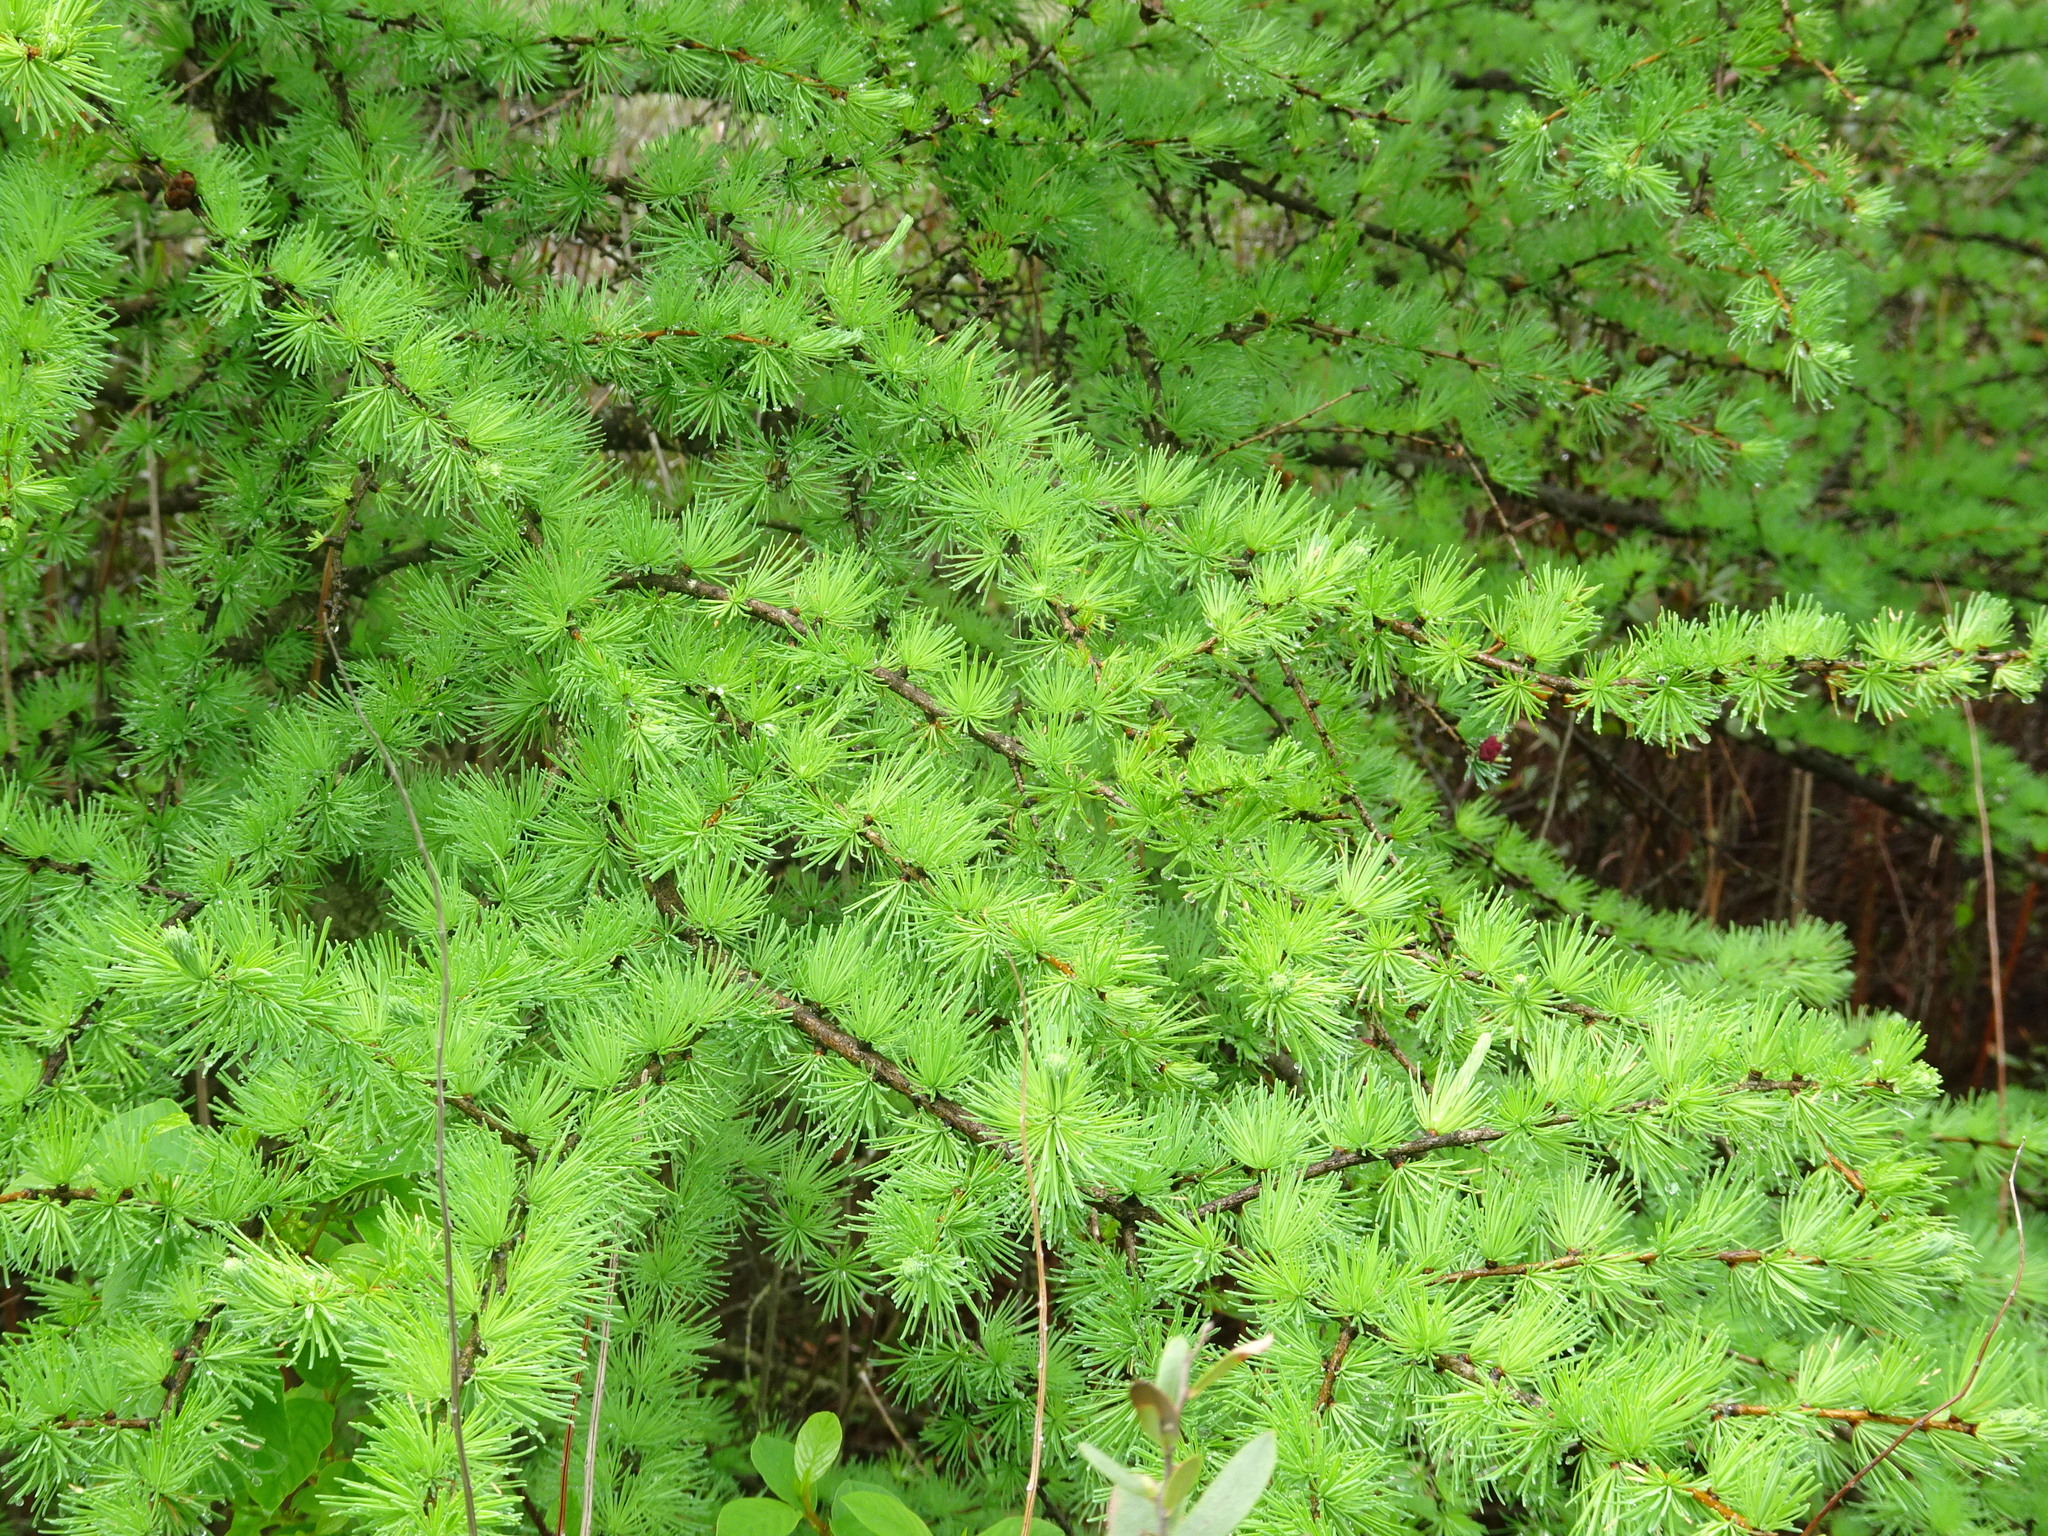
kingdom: Plantae
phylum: Tracheophyta
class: Pinopsida
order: Pinales
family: Pinaceae
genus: Larix
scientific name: Larix laricina
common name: American larch
